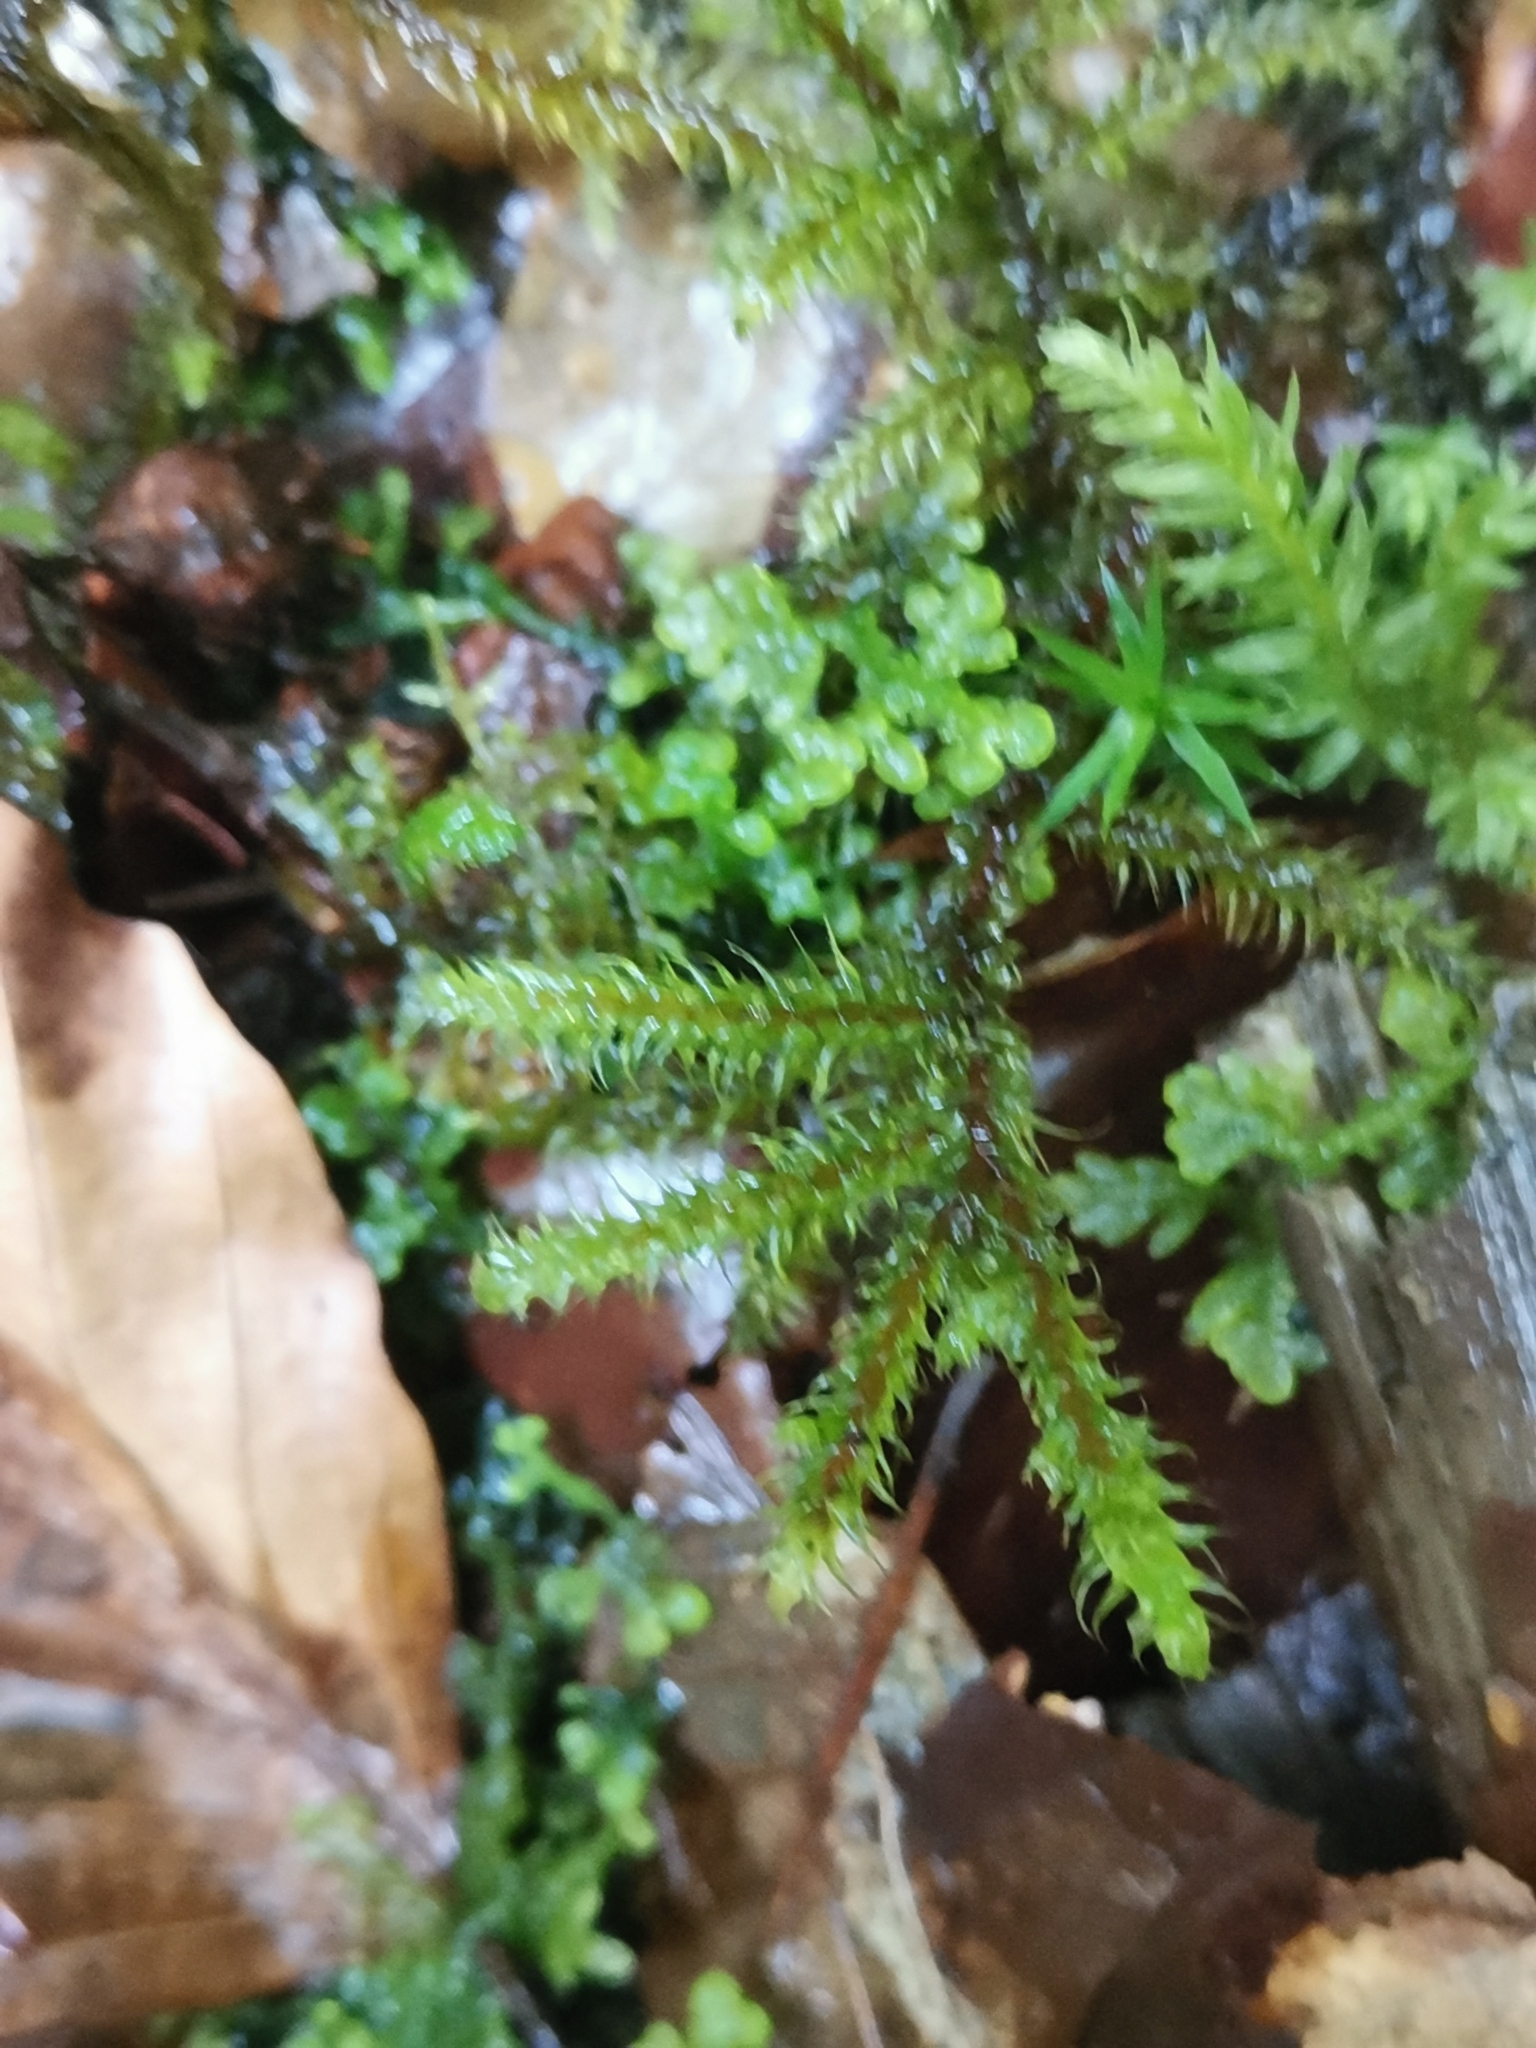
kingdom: Plantae
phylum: Bryophyta
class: Bryopsida
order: Hypnales
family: Hylocomiaceae
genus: Rhytidiadelphus
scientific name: Rhytidiadelphus loreus
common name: Lanky moss
